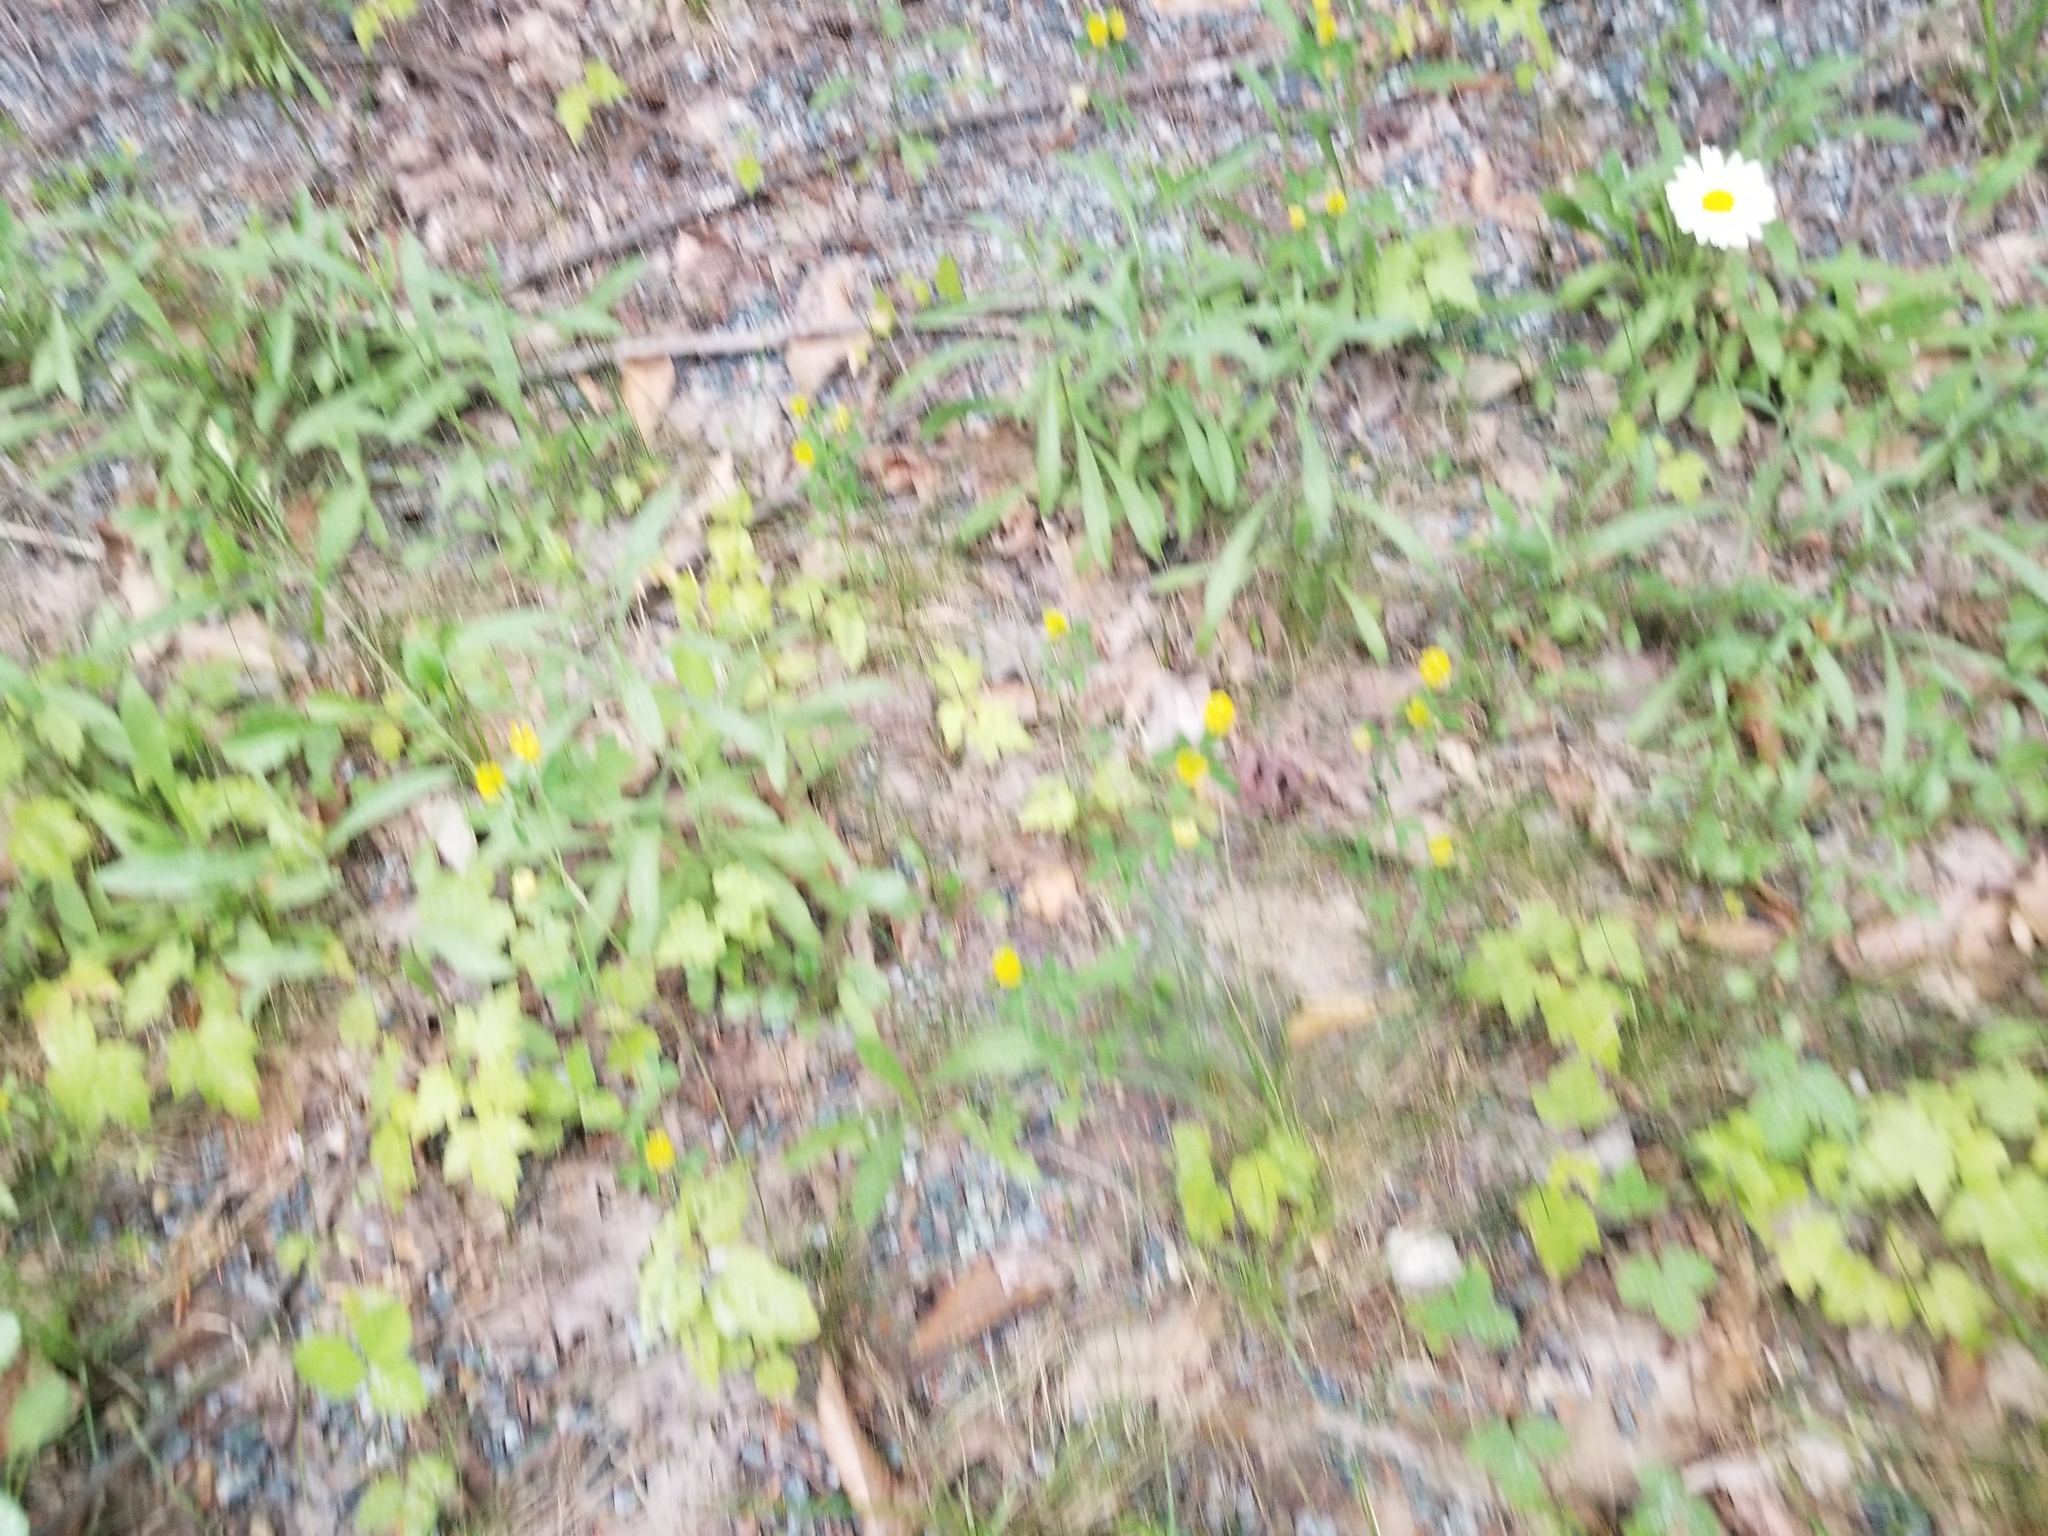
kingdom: Plantae
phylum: Tracheophyta
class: Magnoliopsida
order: Fabales
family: Fabaceae
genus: Trifolium
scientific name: Trifolium aureum
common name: Golden clover
